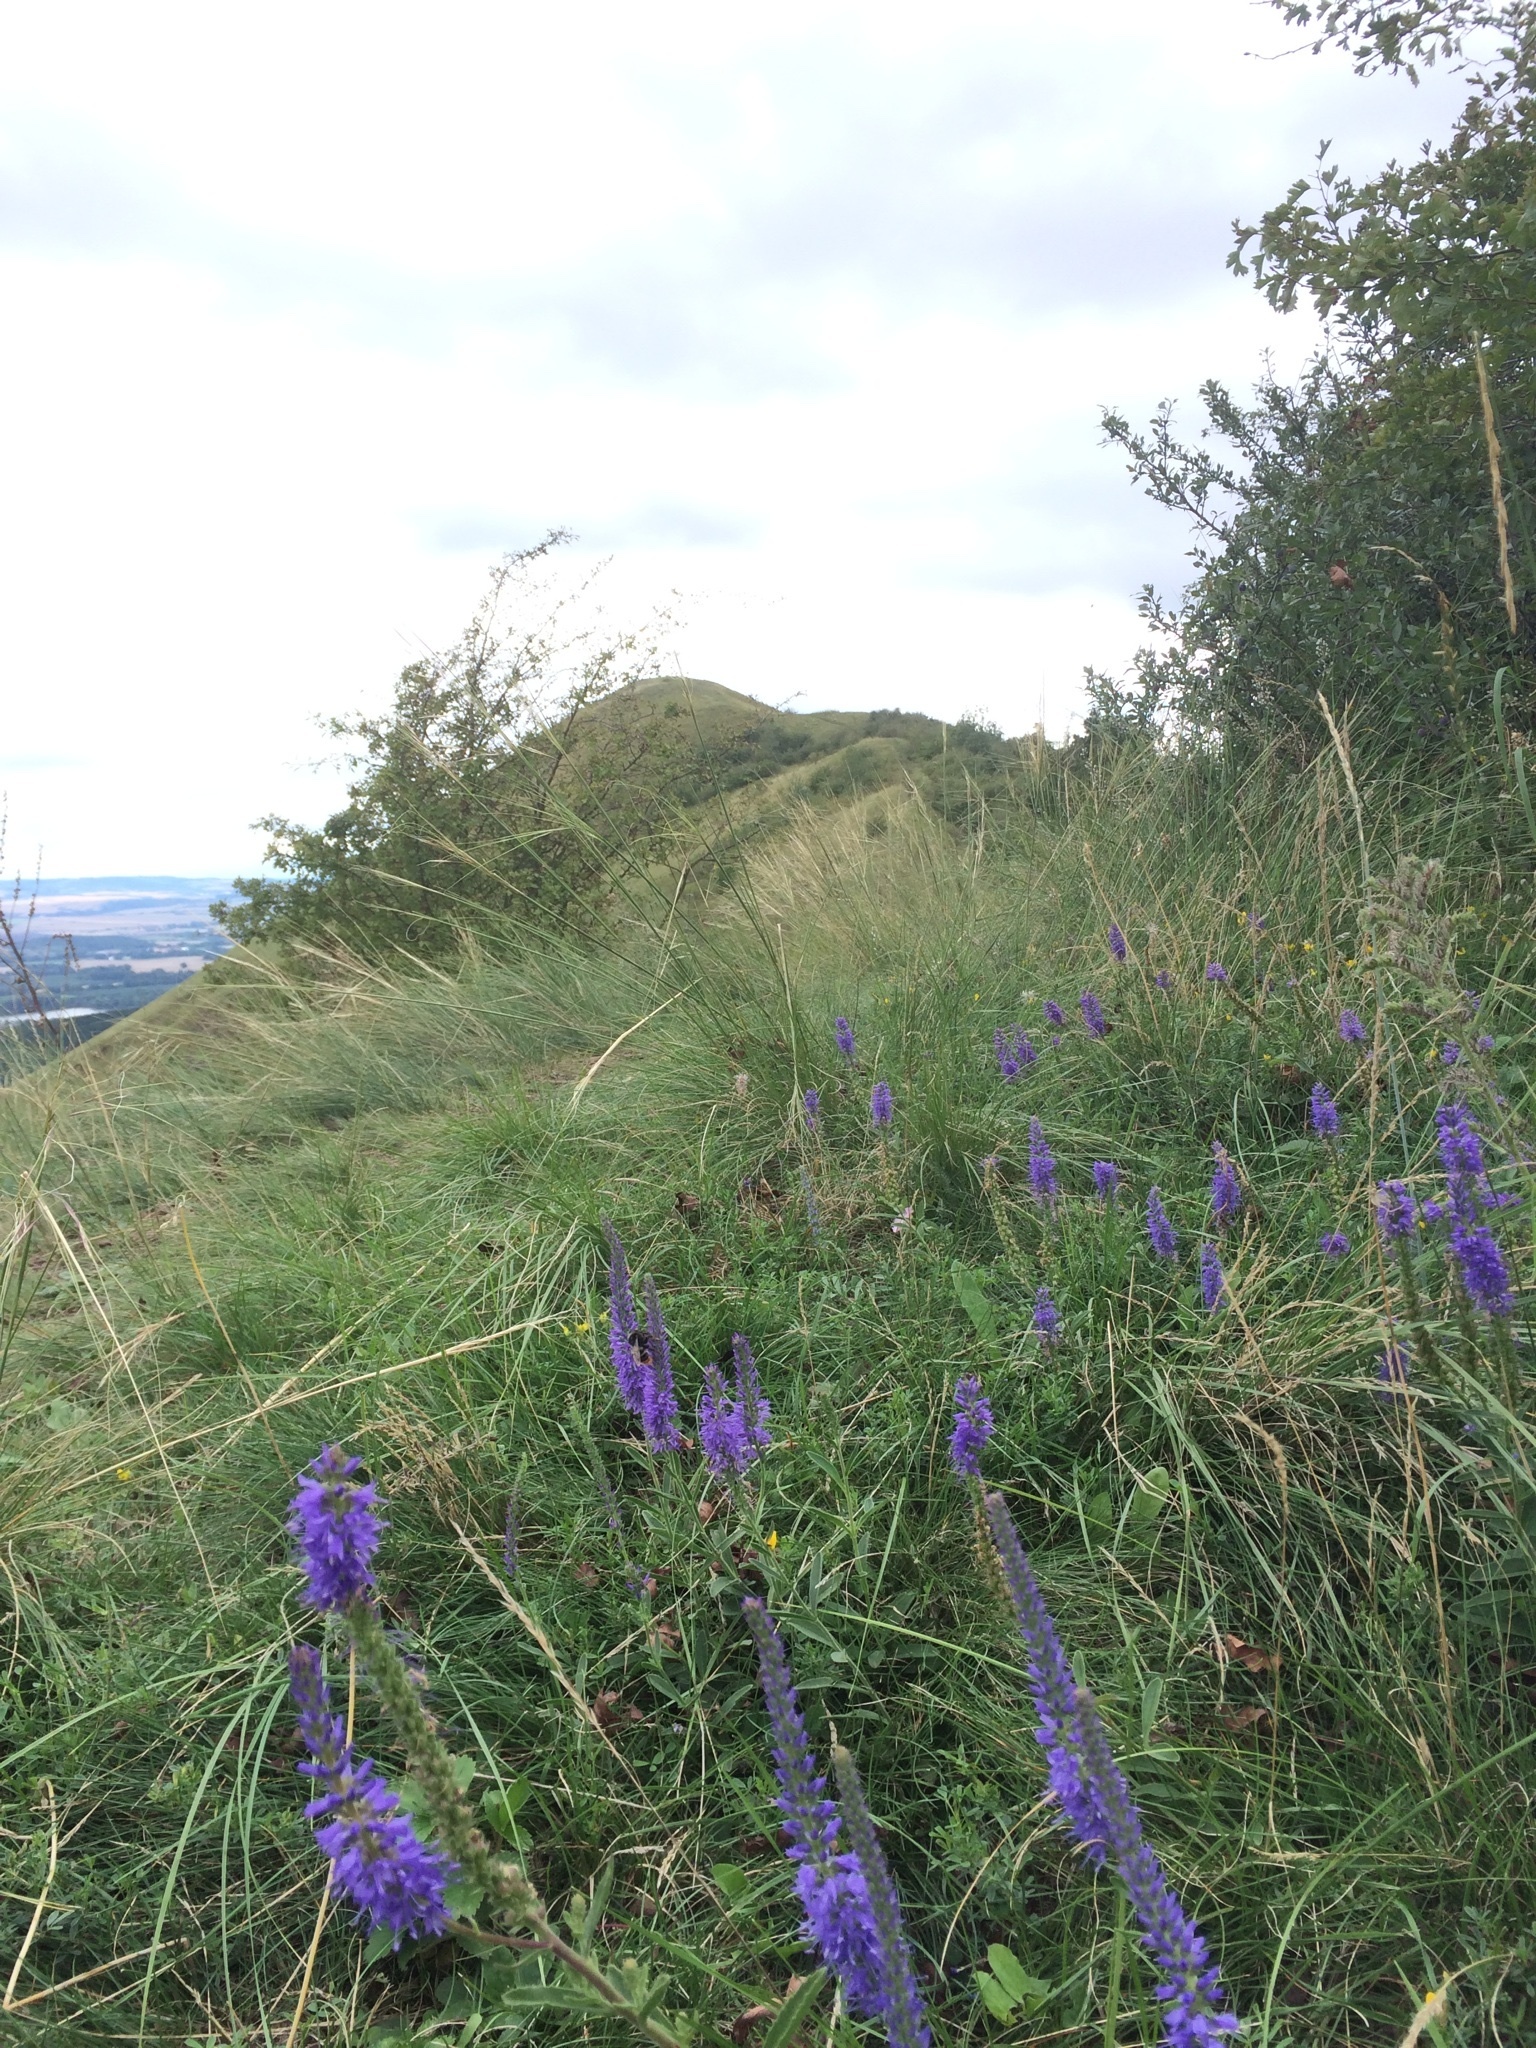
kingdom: Plantae
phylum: Tracheophyta
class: Magnoliopsida
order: Lamiales
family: Plantaginaceae
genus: Veronica
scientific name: Veronica spicata
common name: Spiked speedwell
